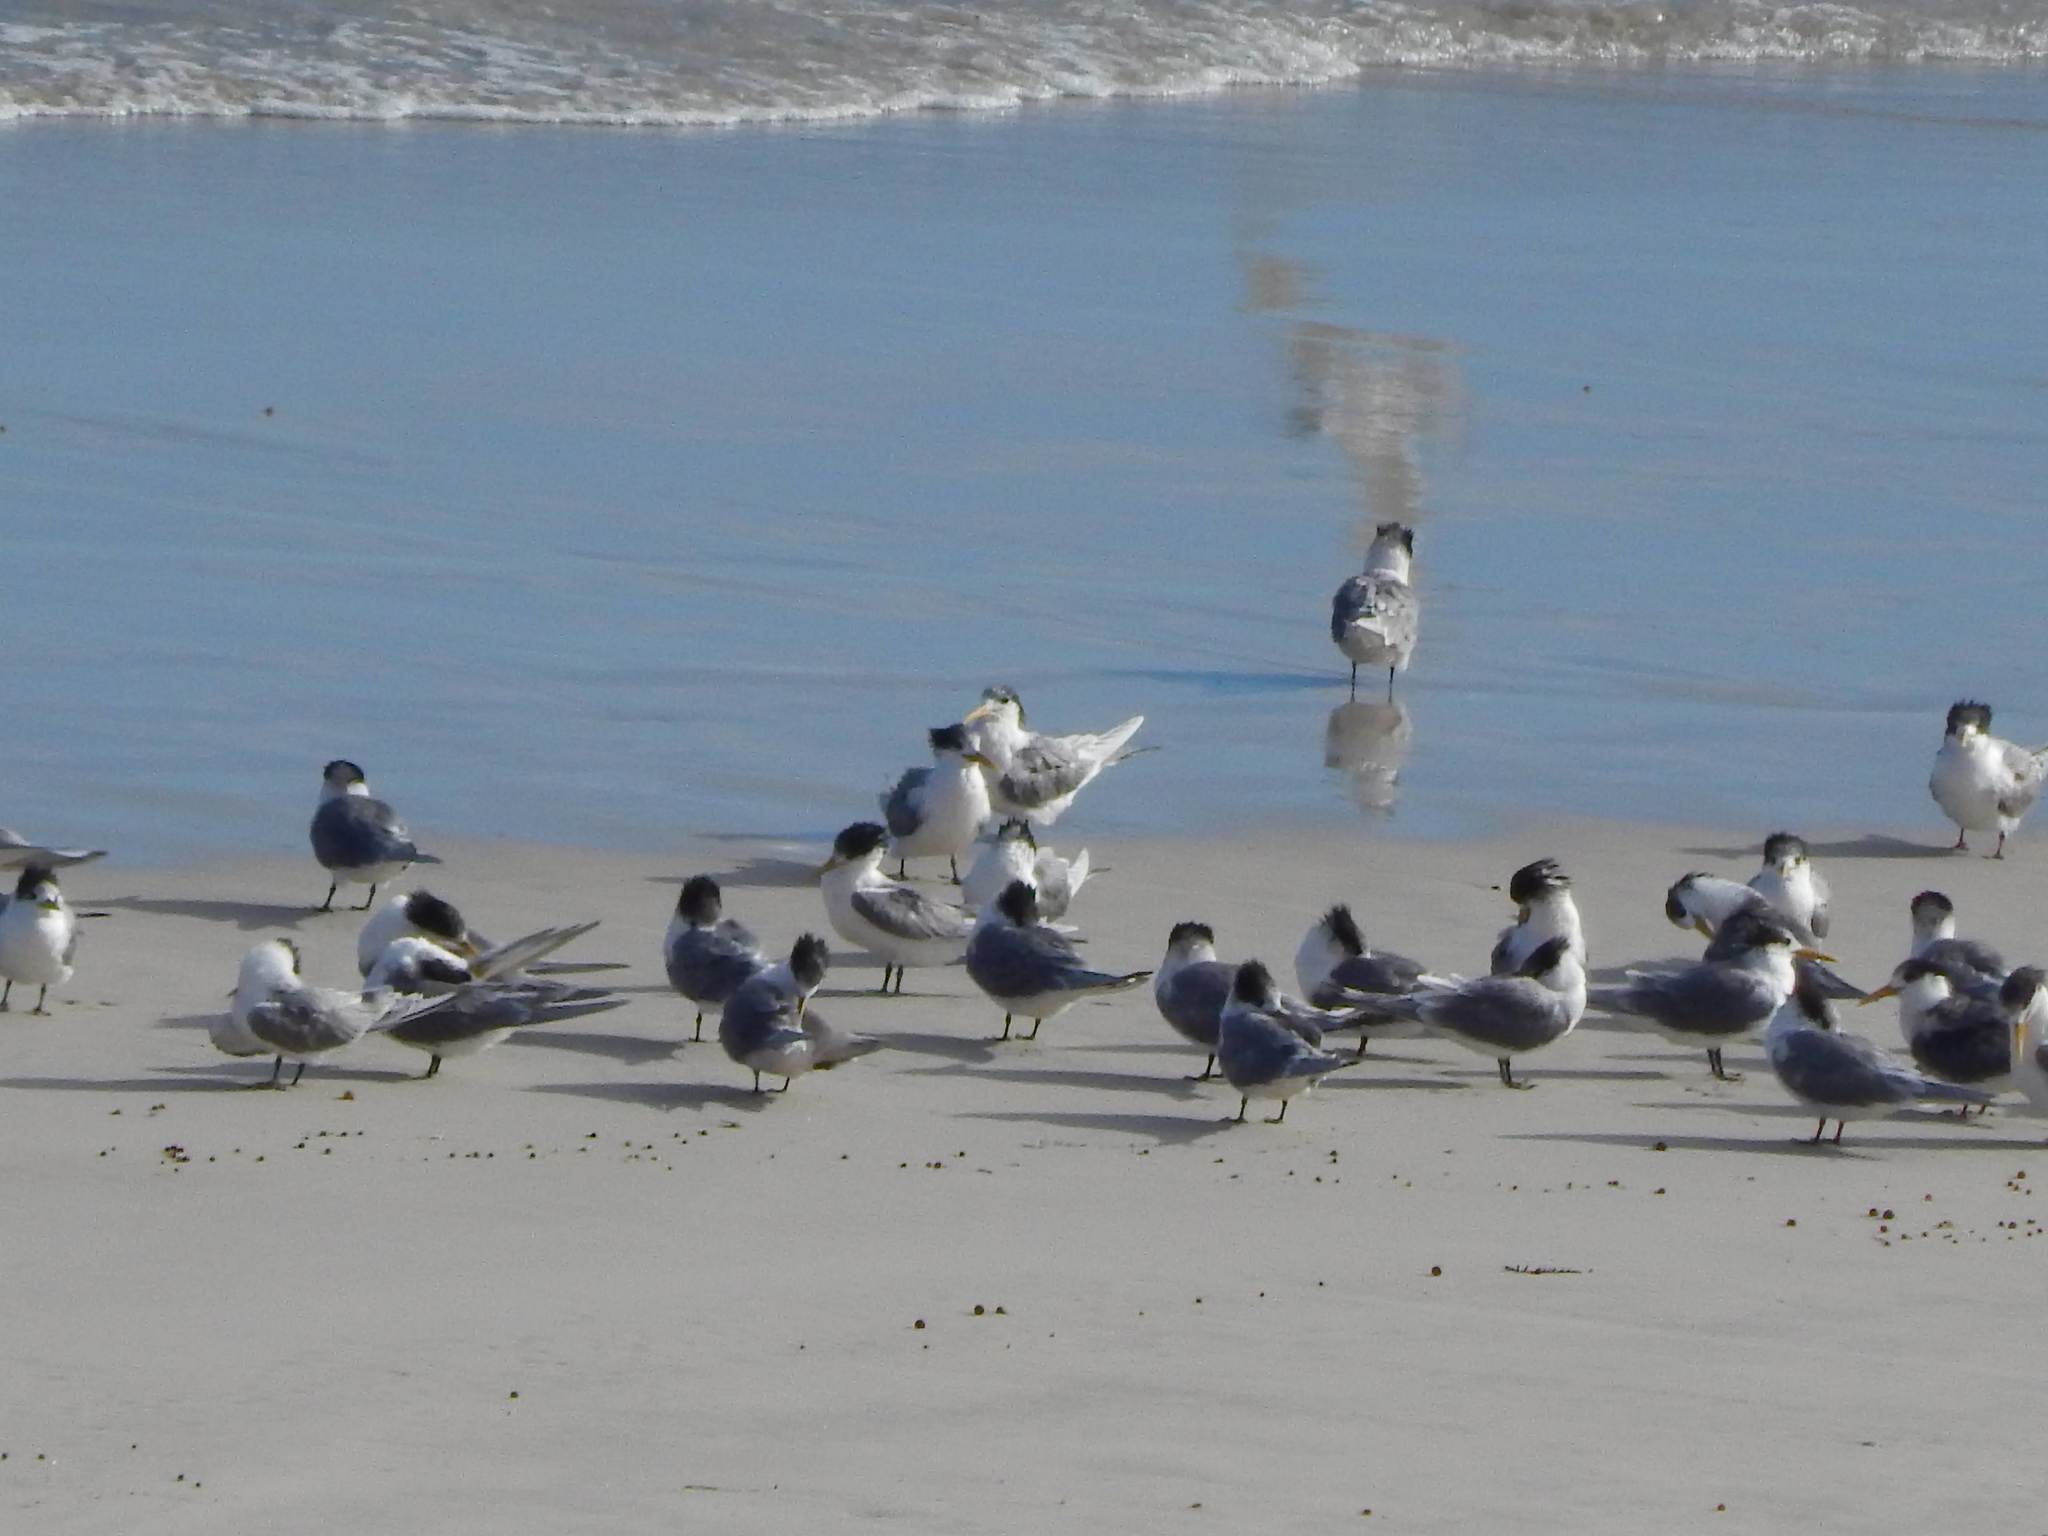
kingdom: Animalia
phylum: Chordata
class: Aves
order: Charadriiformes
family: Laridae
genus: Thalasseus
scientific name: Thalasseus bergii
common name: Greater crested tern
